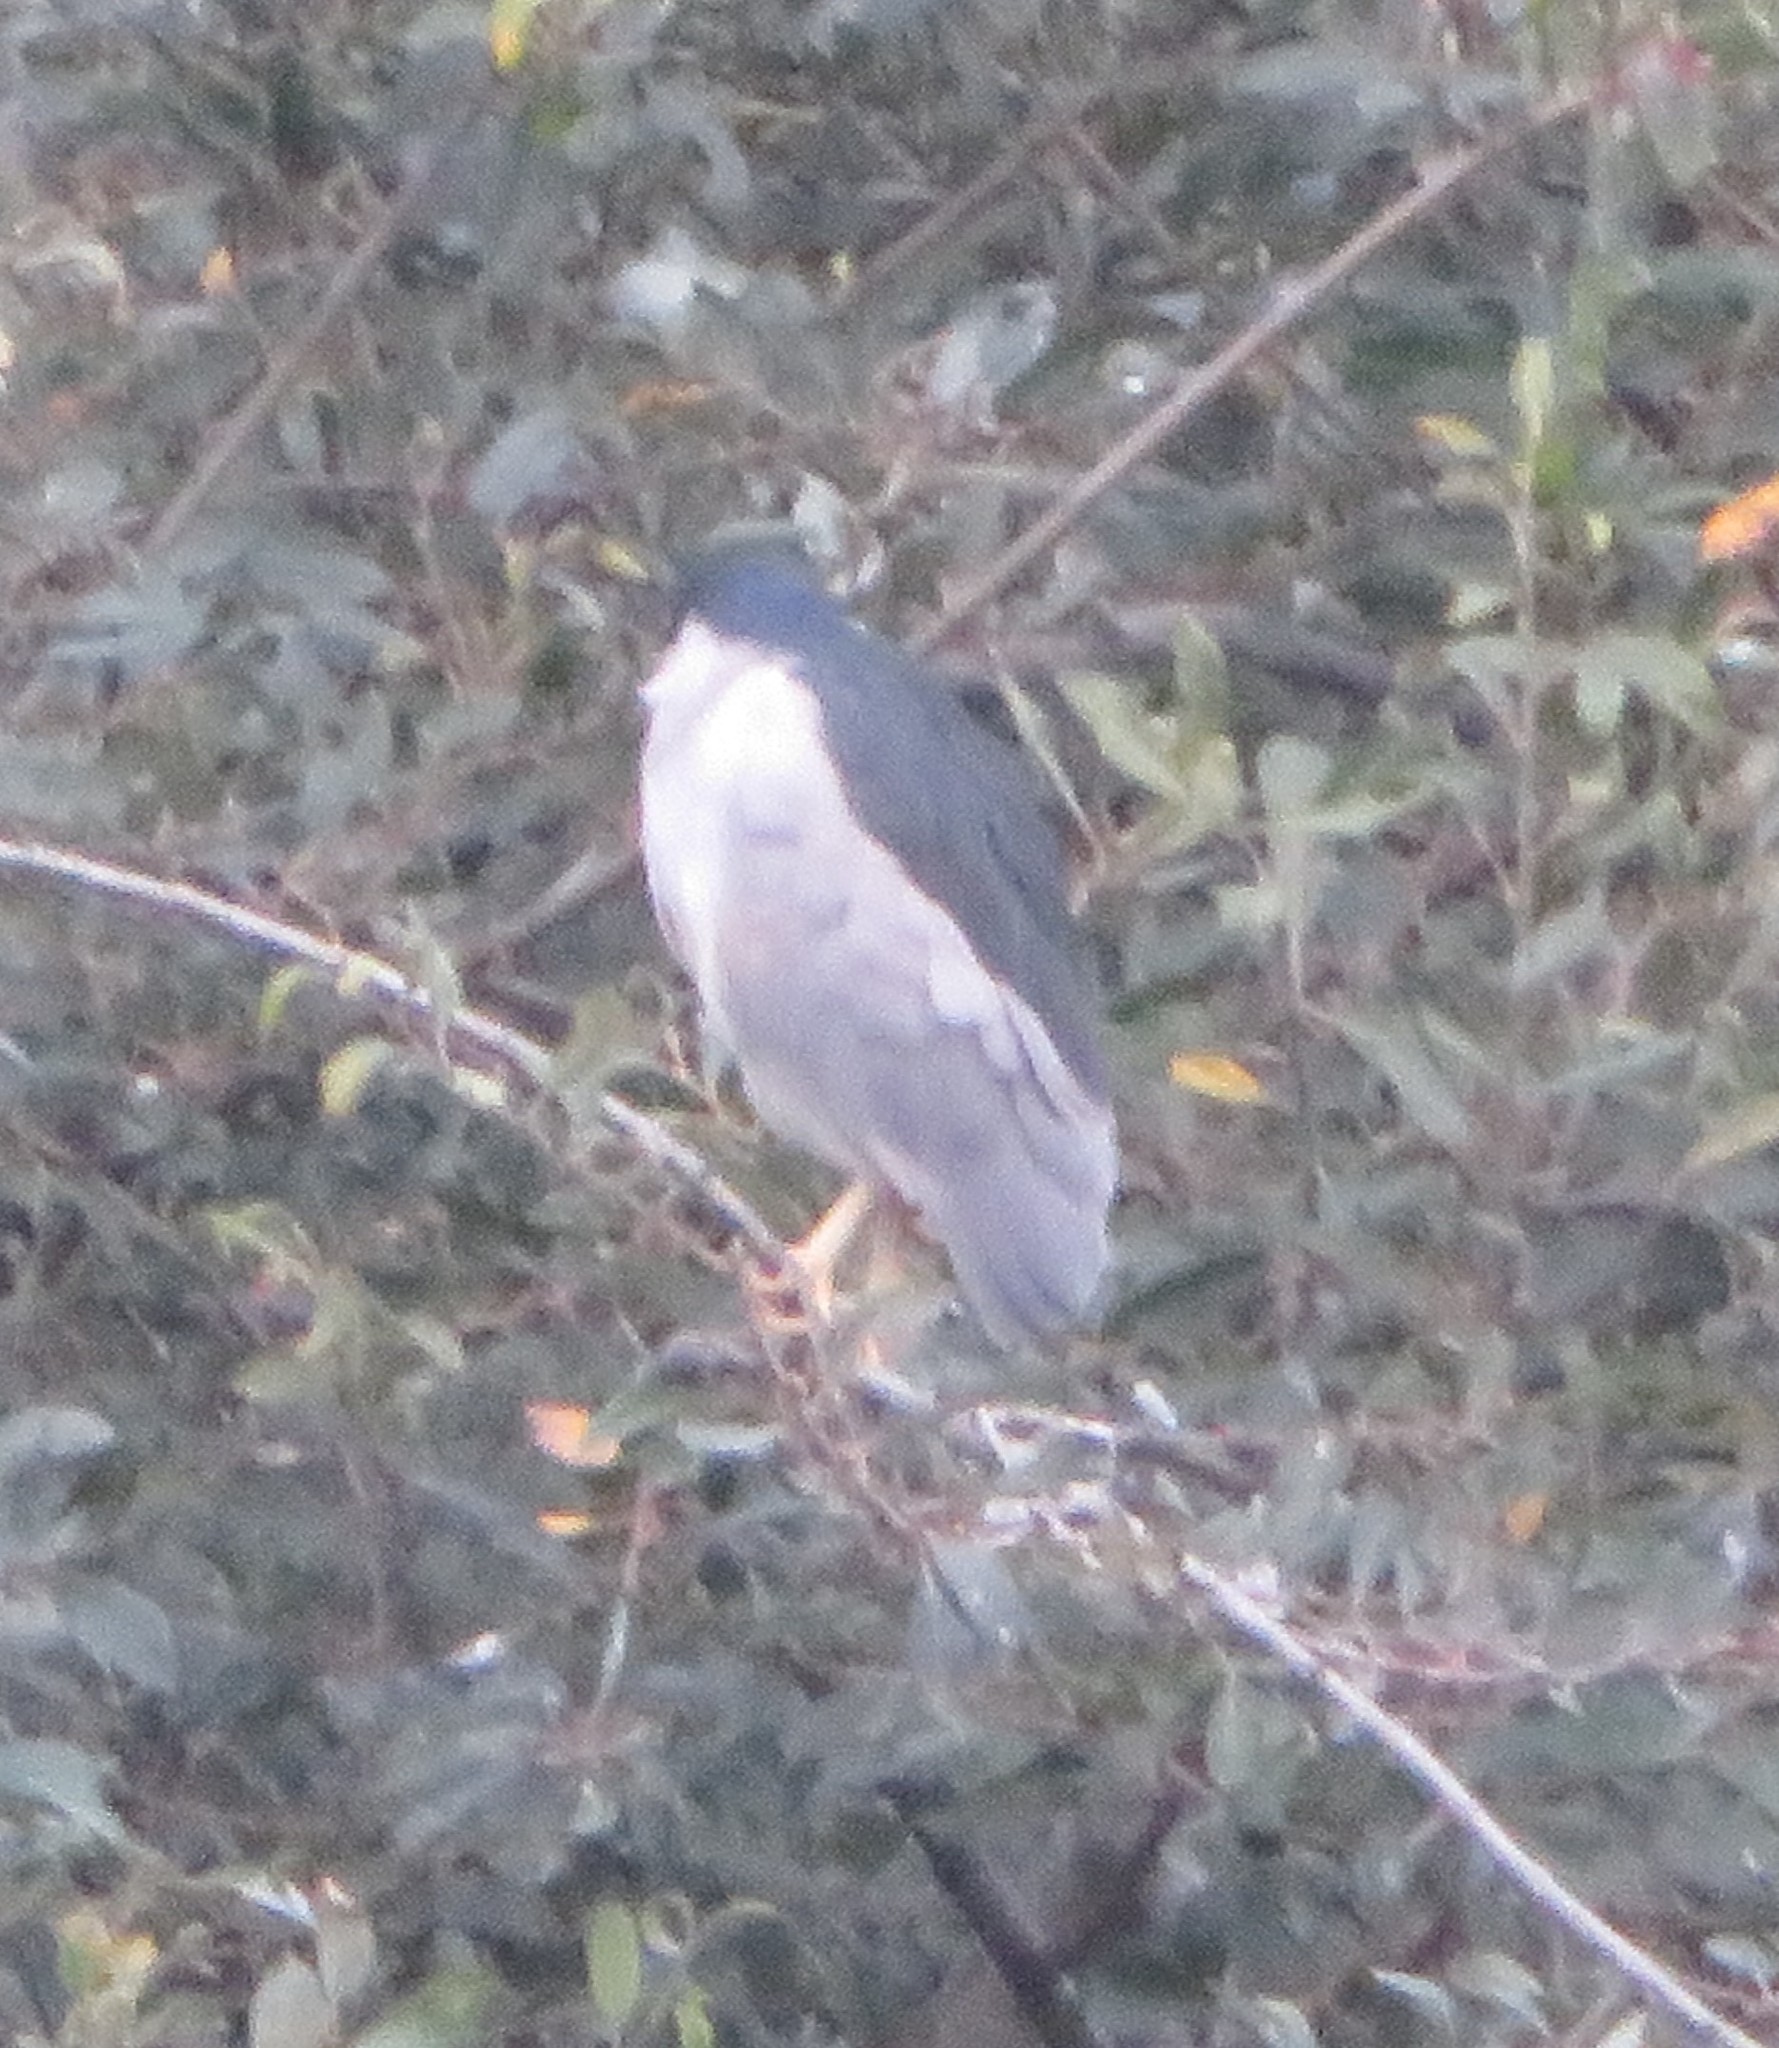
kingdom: Animalia
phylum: Chordata
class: Aves
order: Pelecaniformes
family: Ardeidae
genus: Nycticorax
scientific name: Nycticorax nycticorax
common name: Black-crowned night heron
